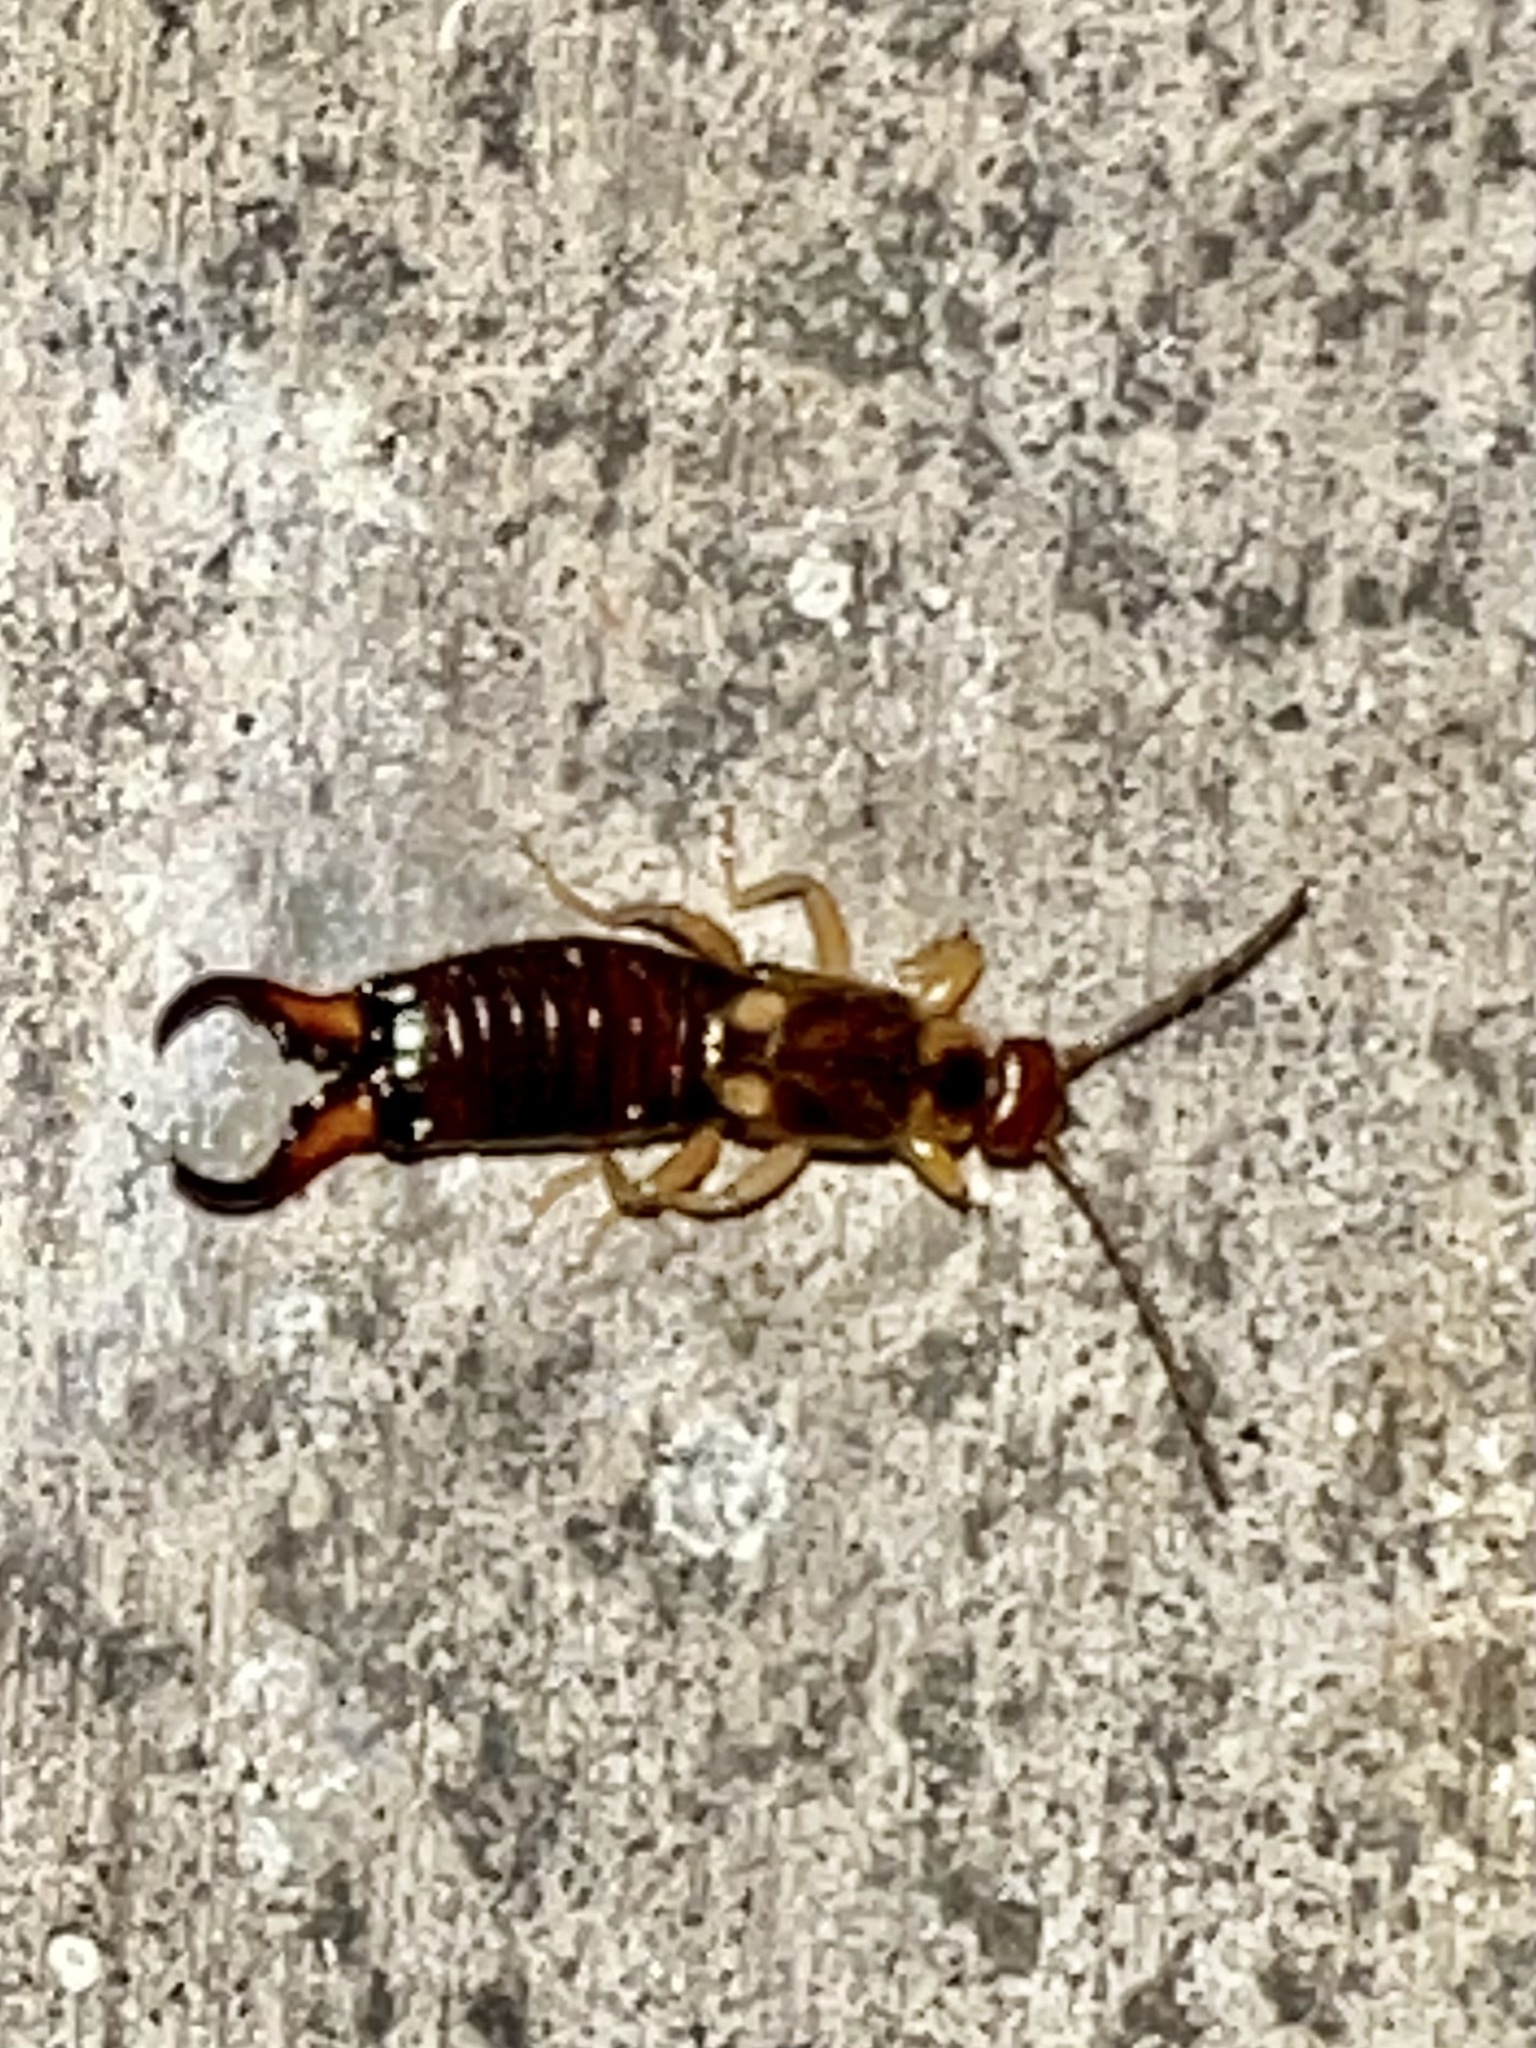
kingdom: Animalia
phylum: Arthropoda
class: Insecta
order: Dermaptera
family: Forficulidae
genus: Forficula
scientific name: Forficula auricularia
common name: European earwig
